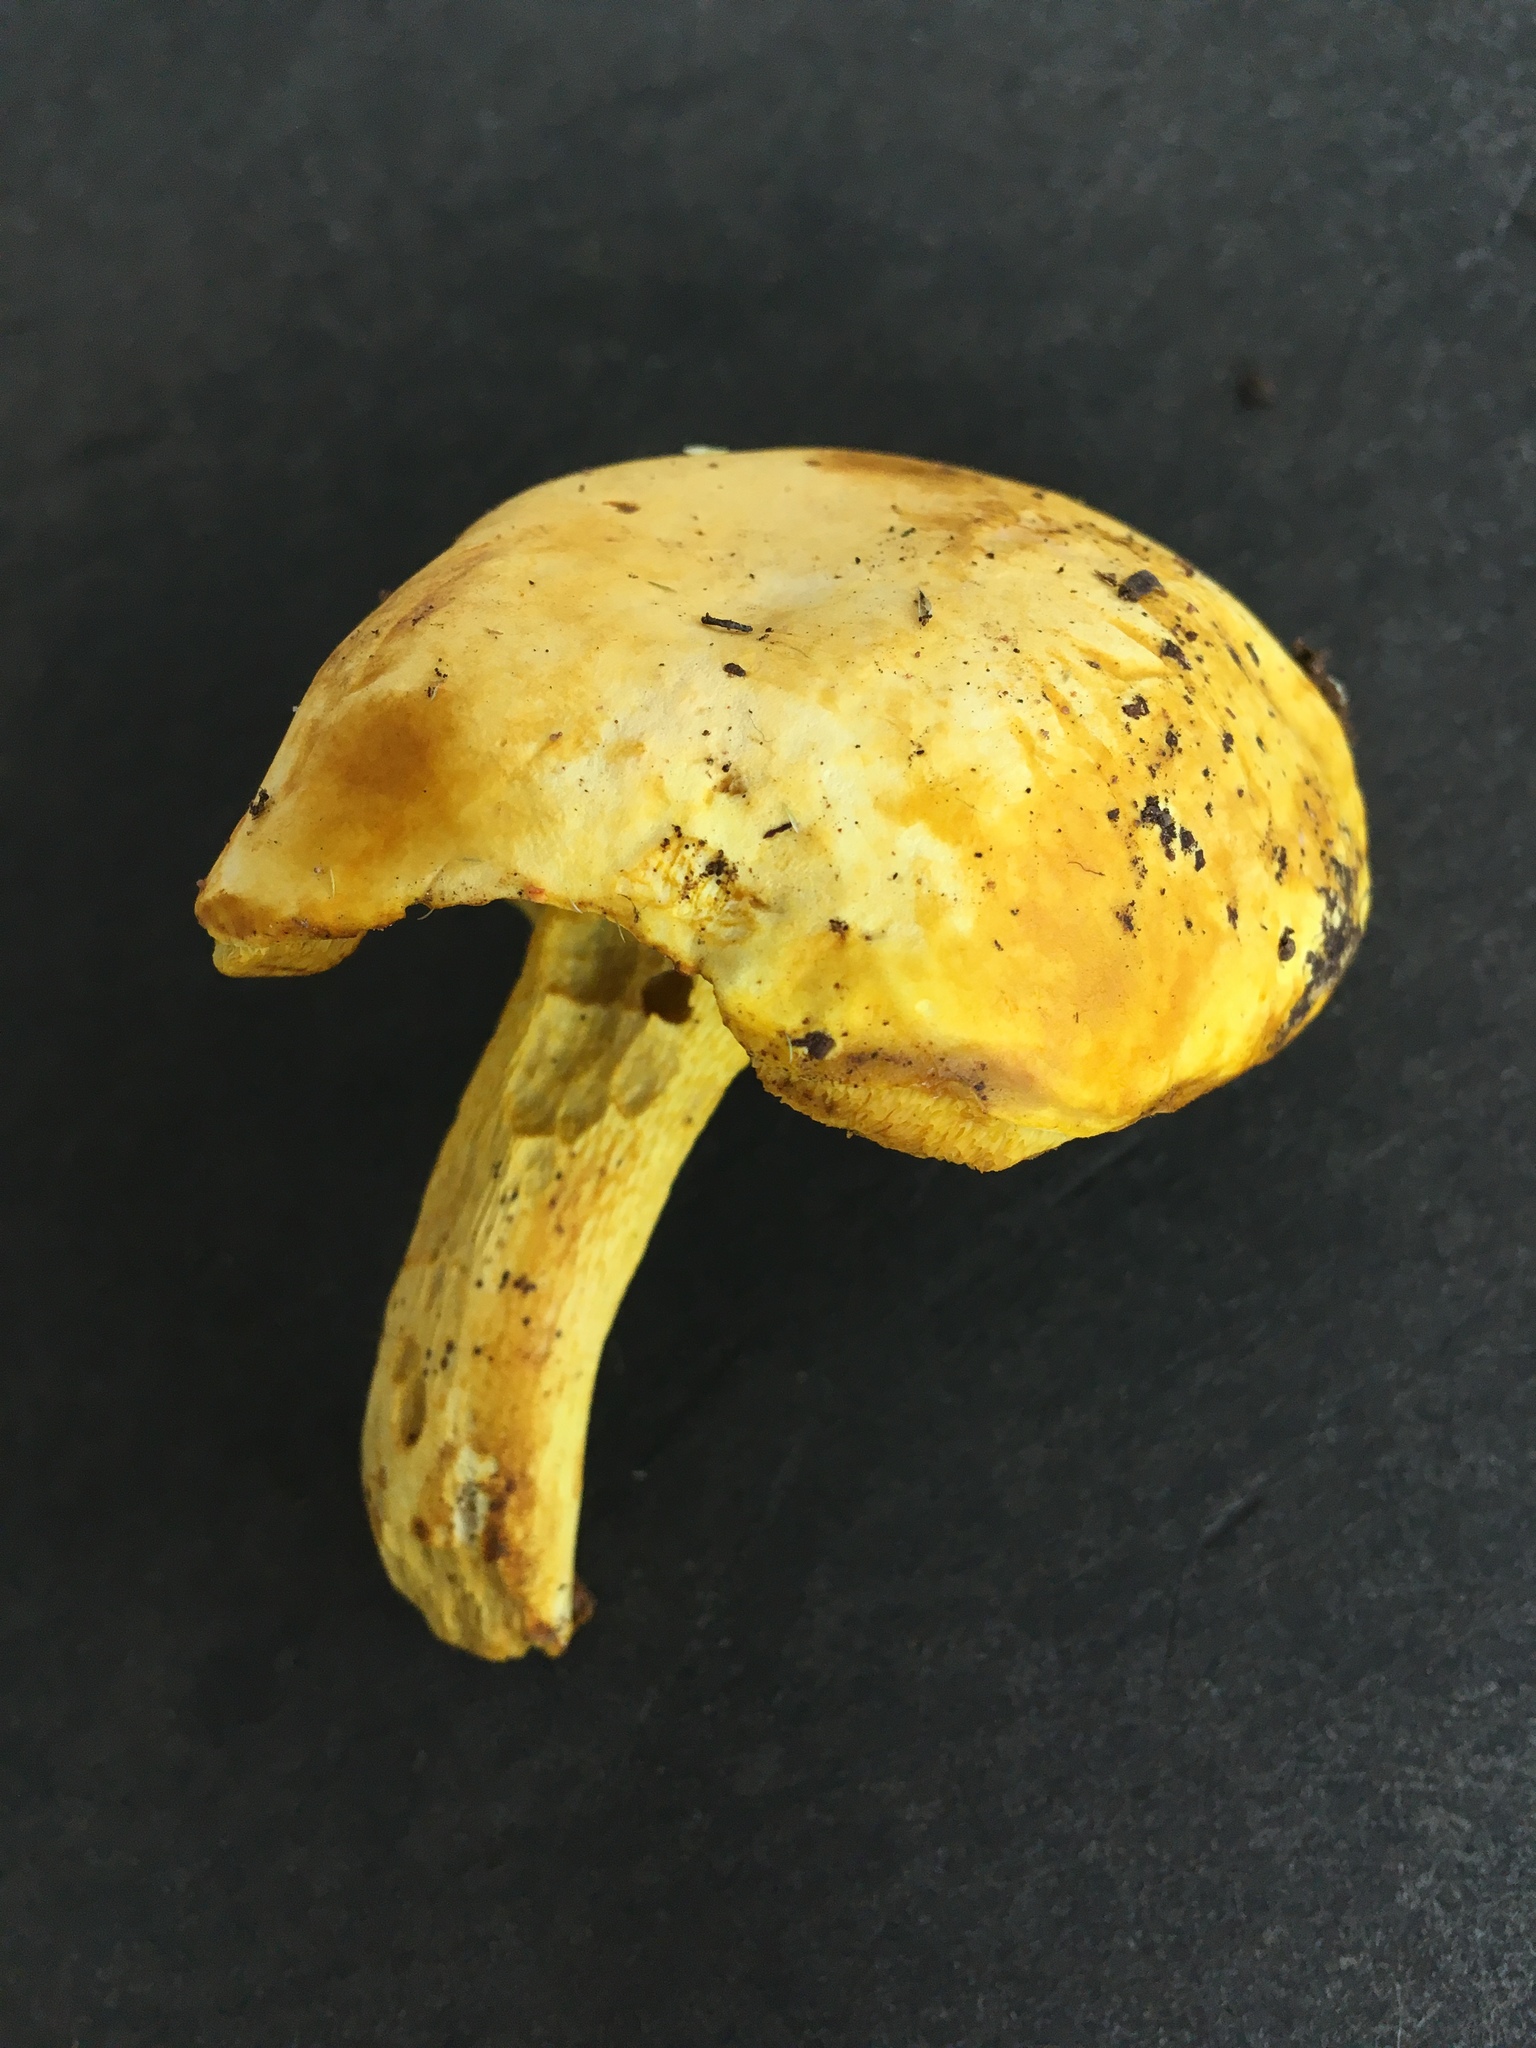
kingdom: Fungi
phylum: Basidiomycota
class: Agaricomycetes
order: Boletales
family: Boletaceae
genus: Retiboletus
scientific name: Retiboletus ornatipes
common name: Ornate-stalked bolete
